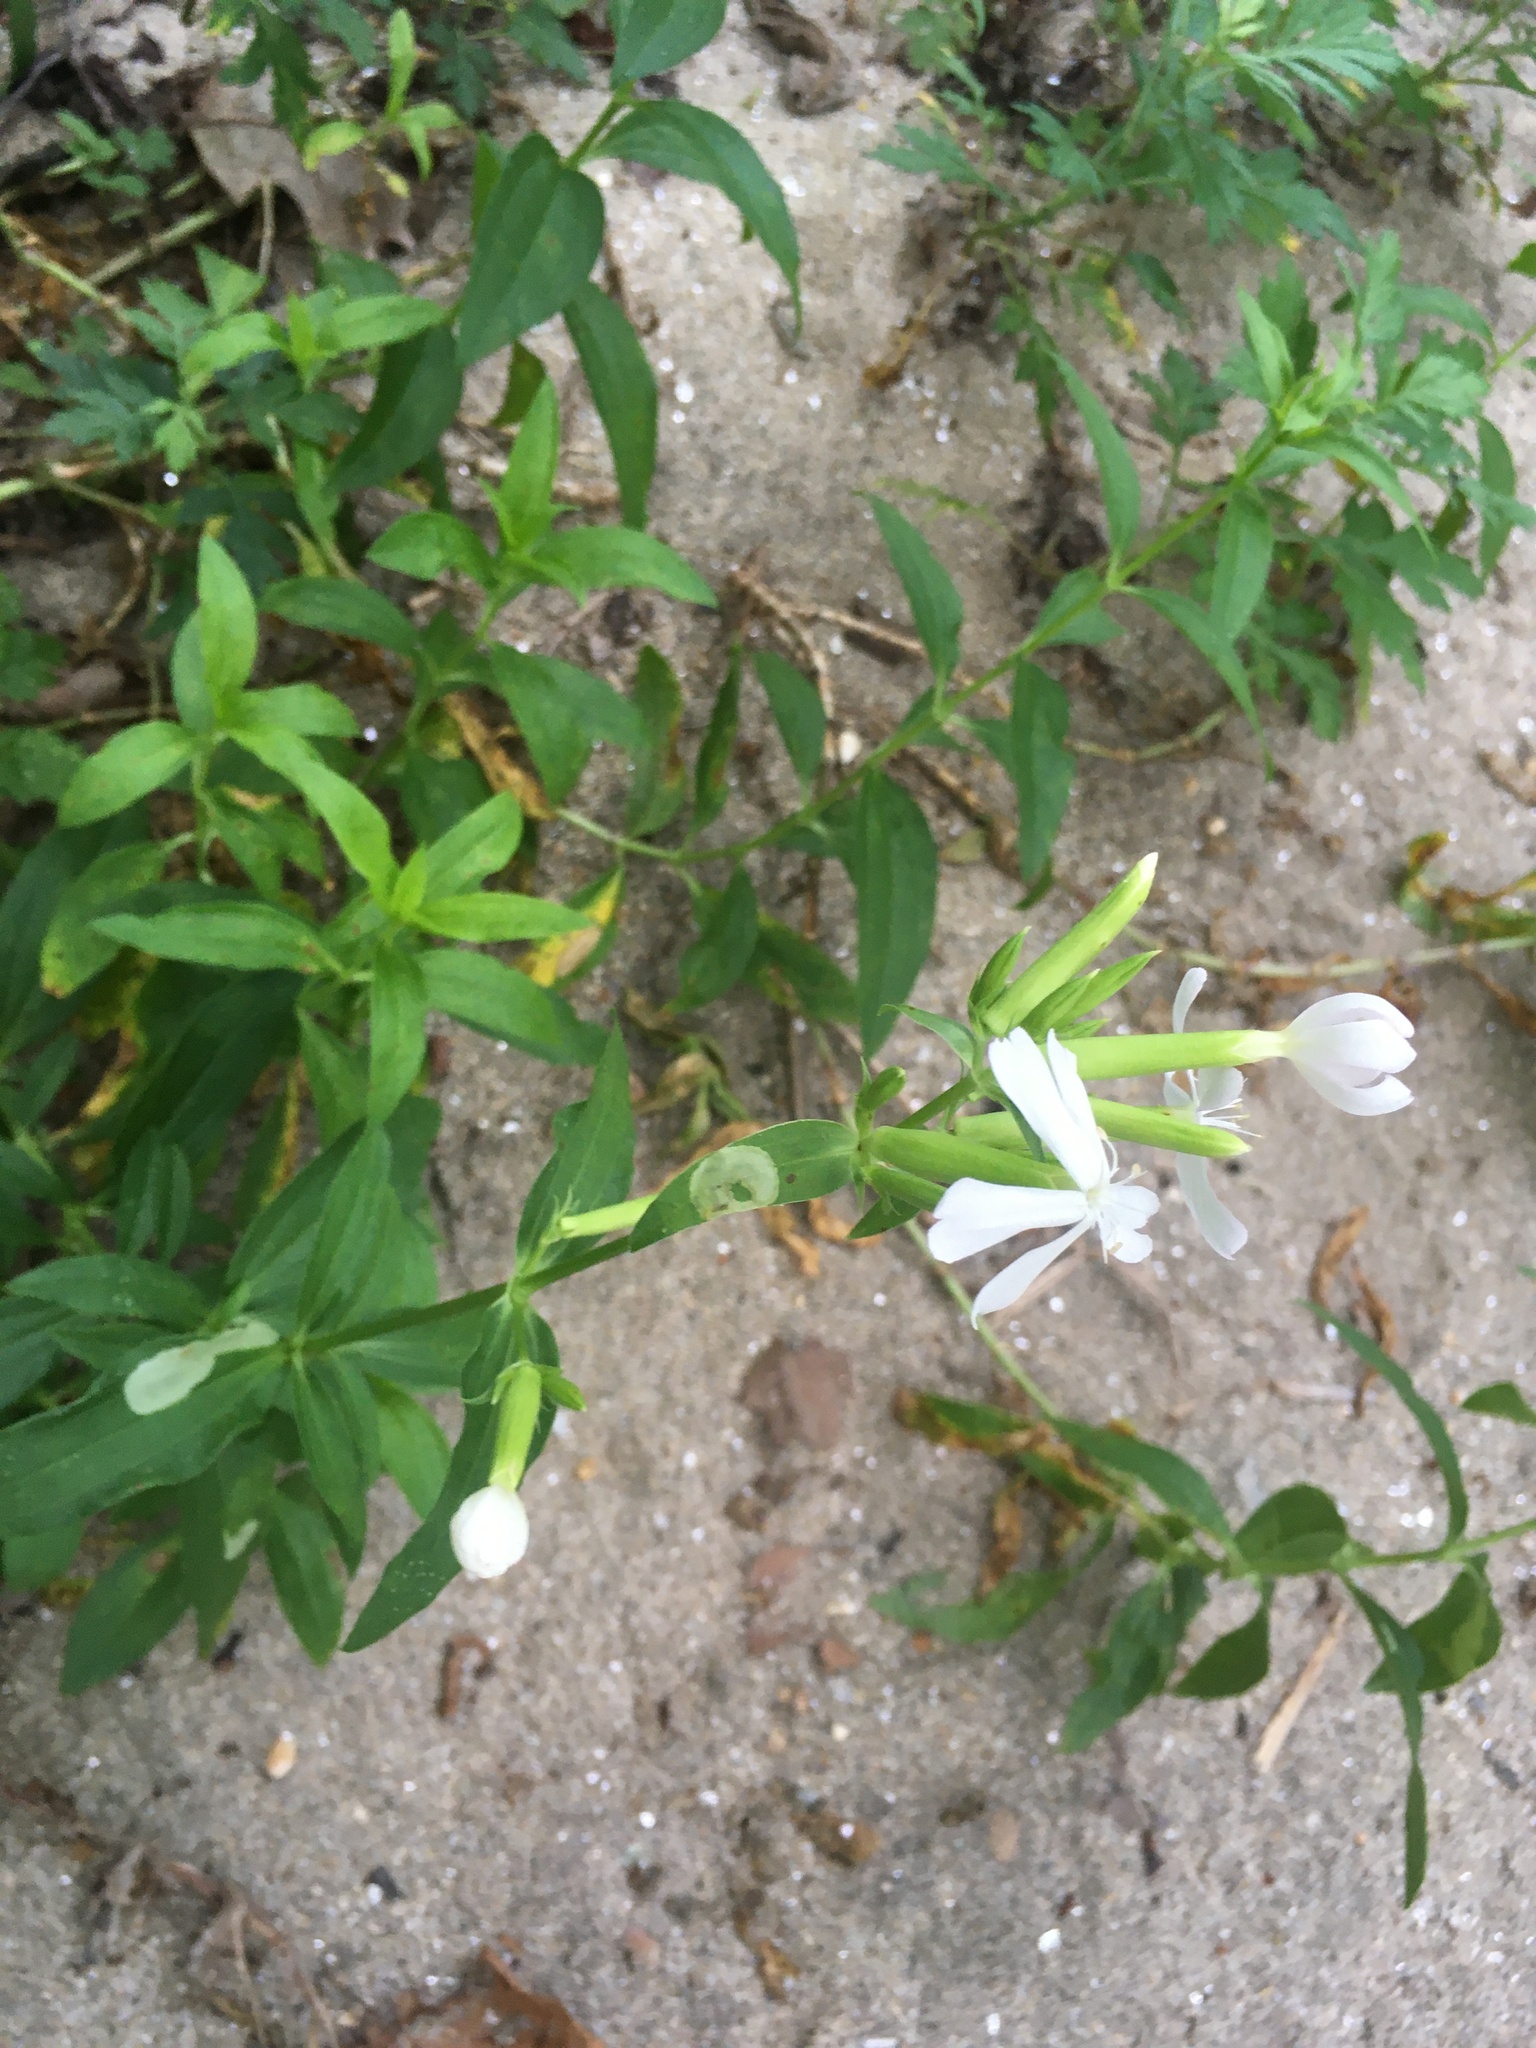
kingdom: Plantae
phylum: Tracheophyta
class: Magnoliopsida
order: Caryophyllales
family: Caryophyllaceae
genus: Saponaria
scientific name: Saponaria officinalis
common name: Soapwort
